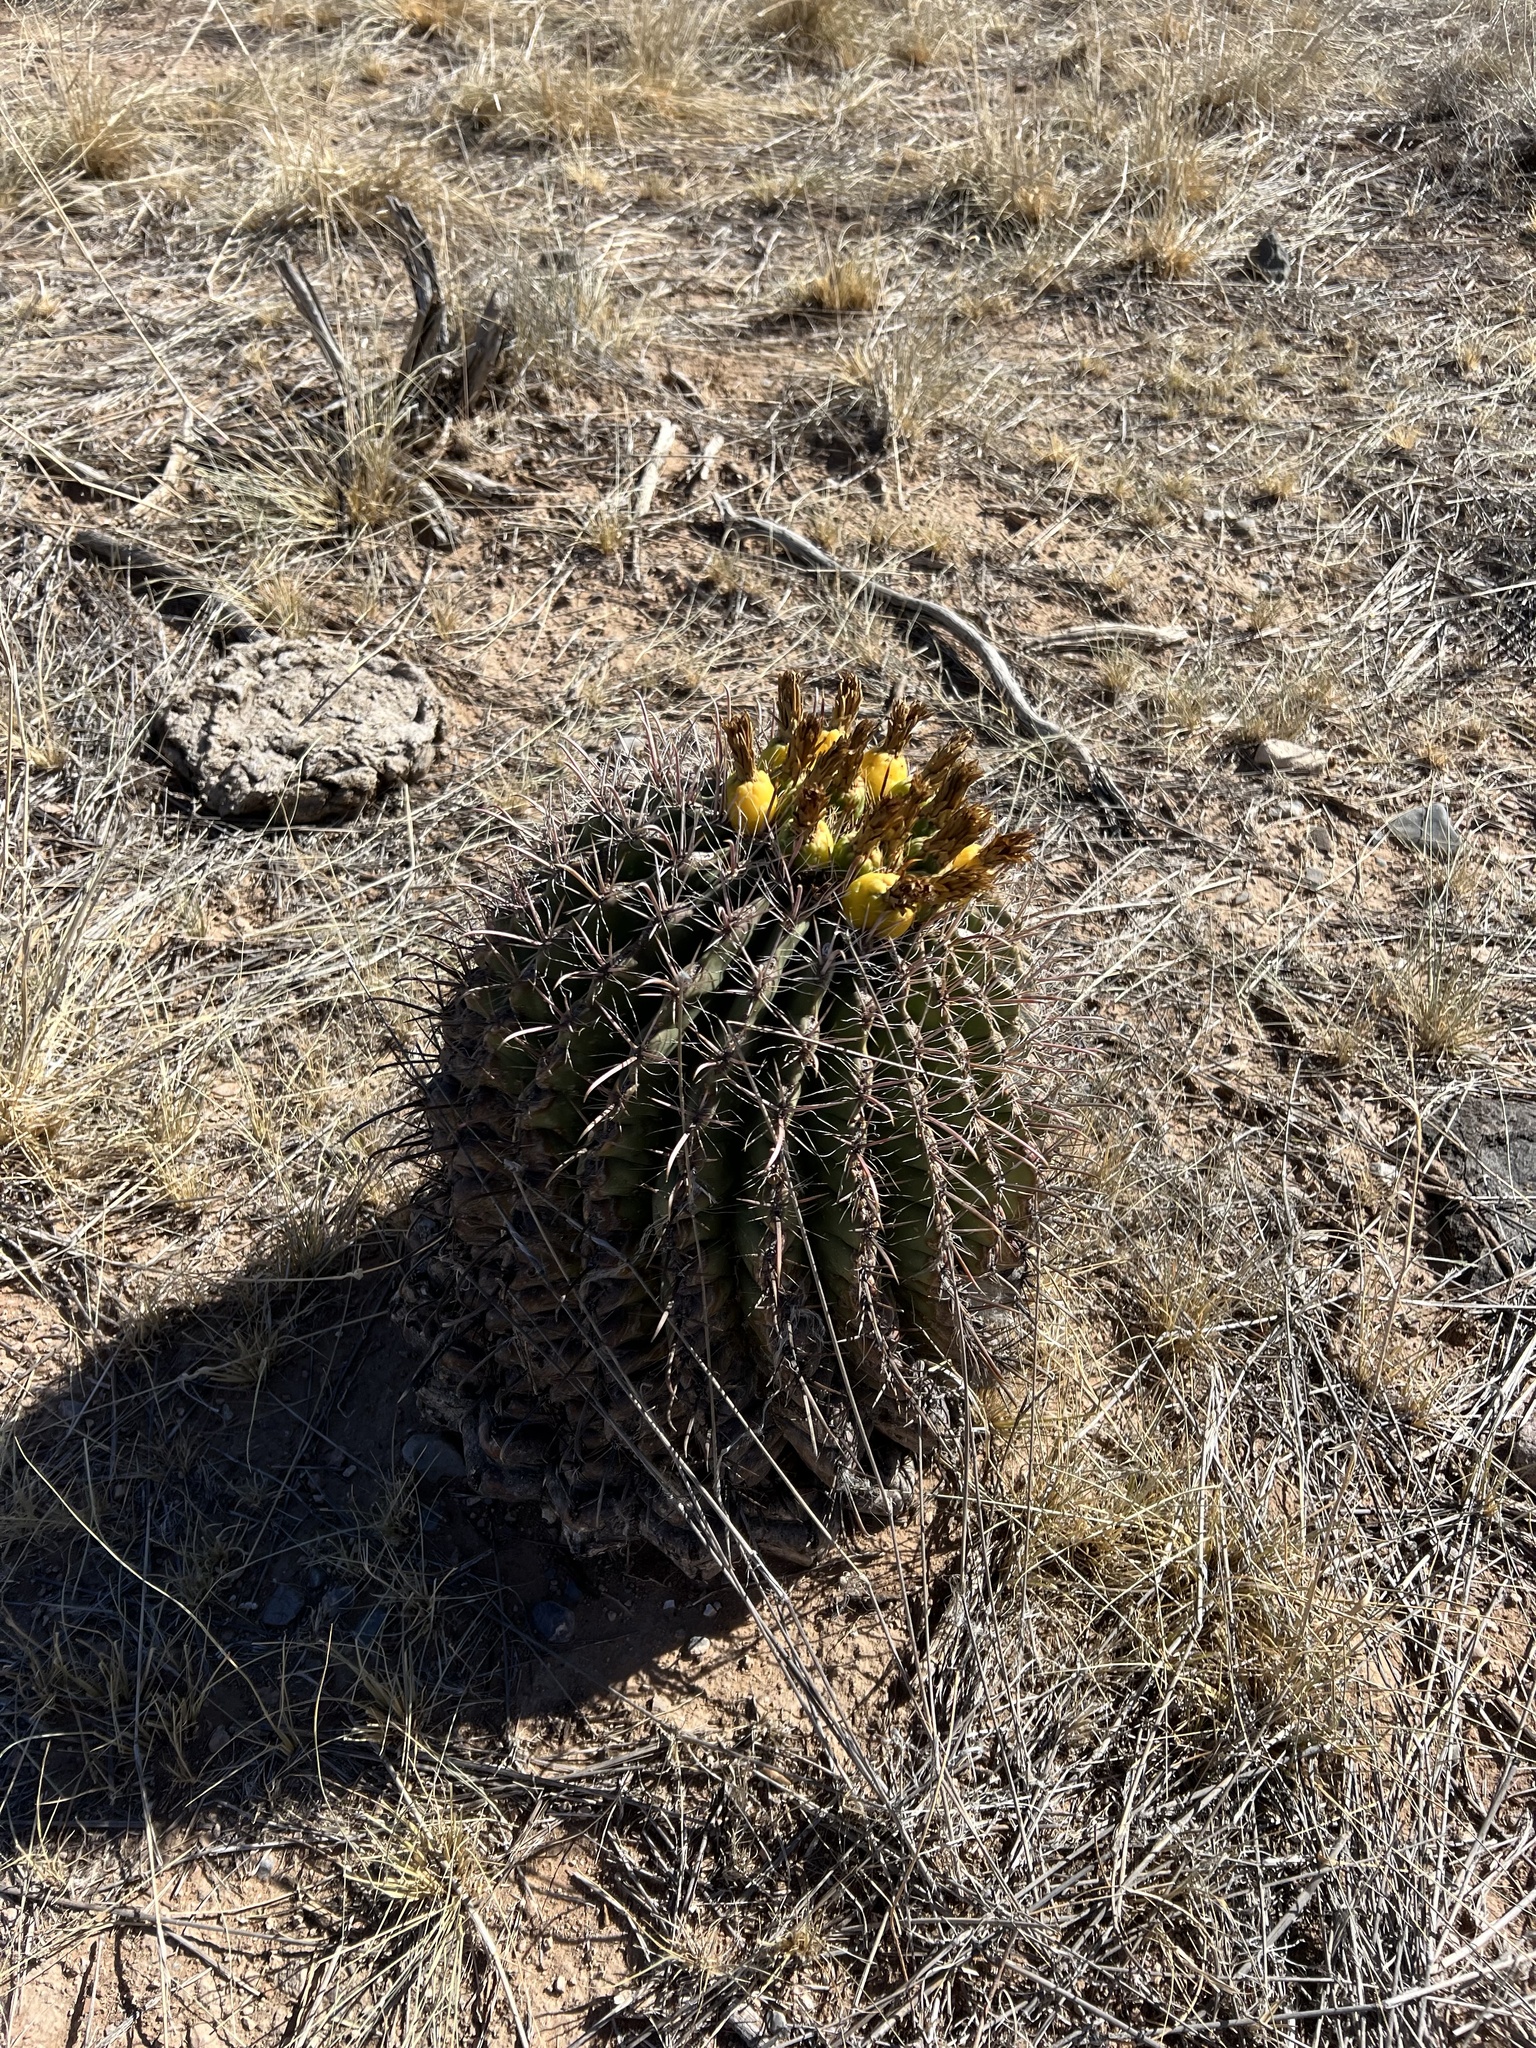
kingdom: Plantae
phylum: Tracheophyta
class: Magnoliopsida
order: Caryophyllales
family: Cactaceae
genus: Ferocactus
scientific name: Ferocactus wislizeni
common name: Candy barrel cactus
